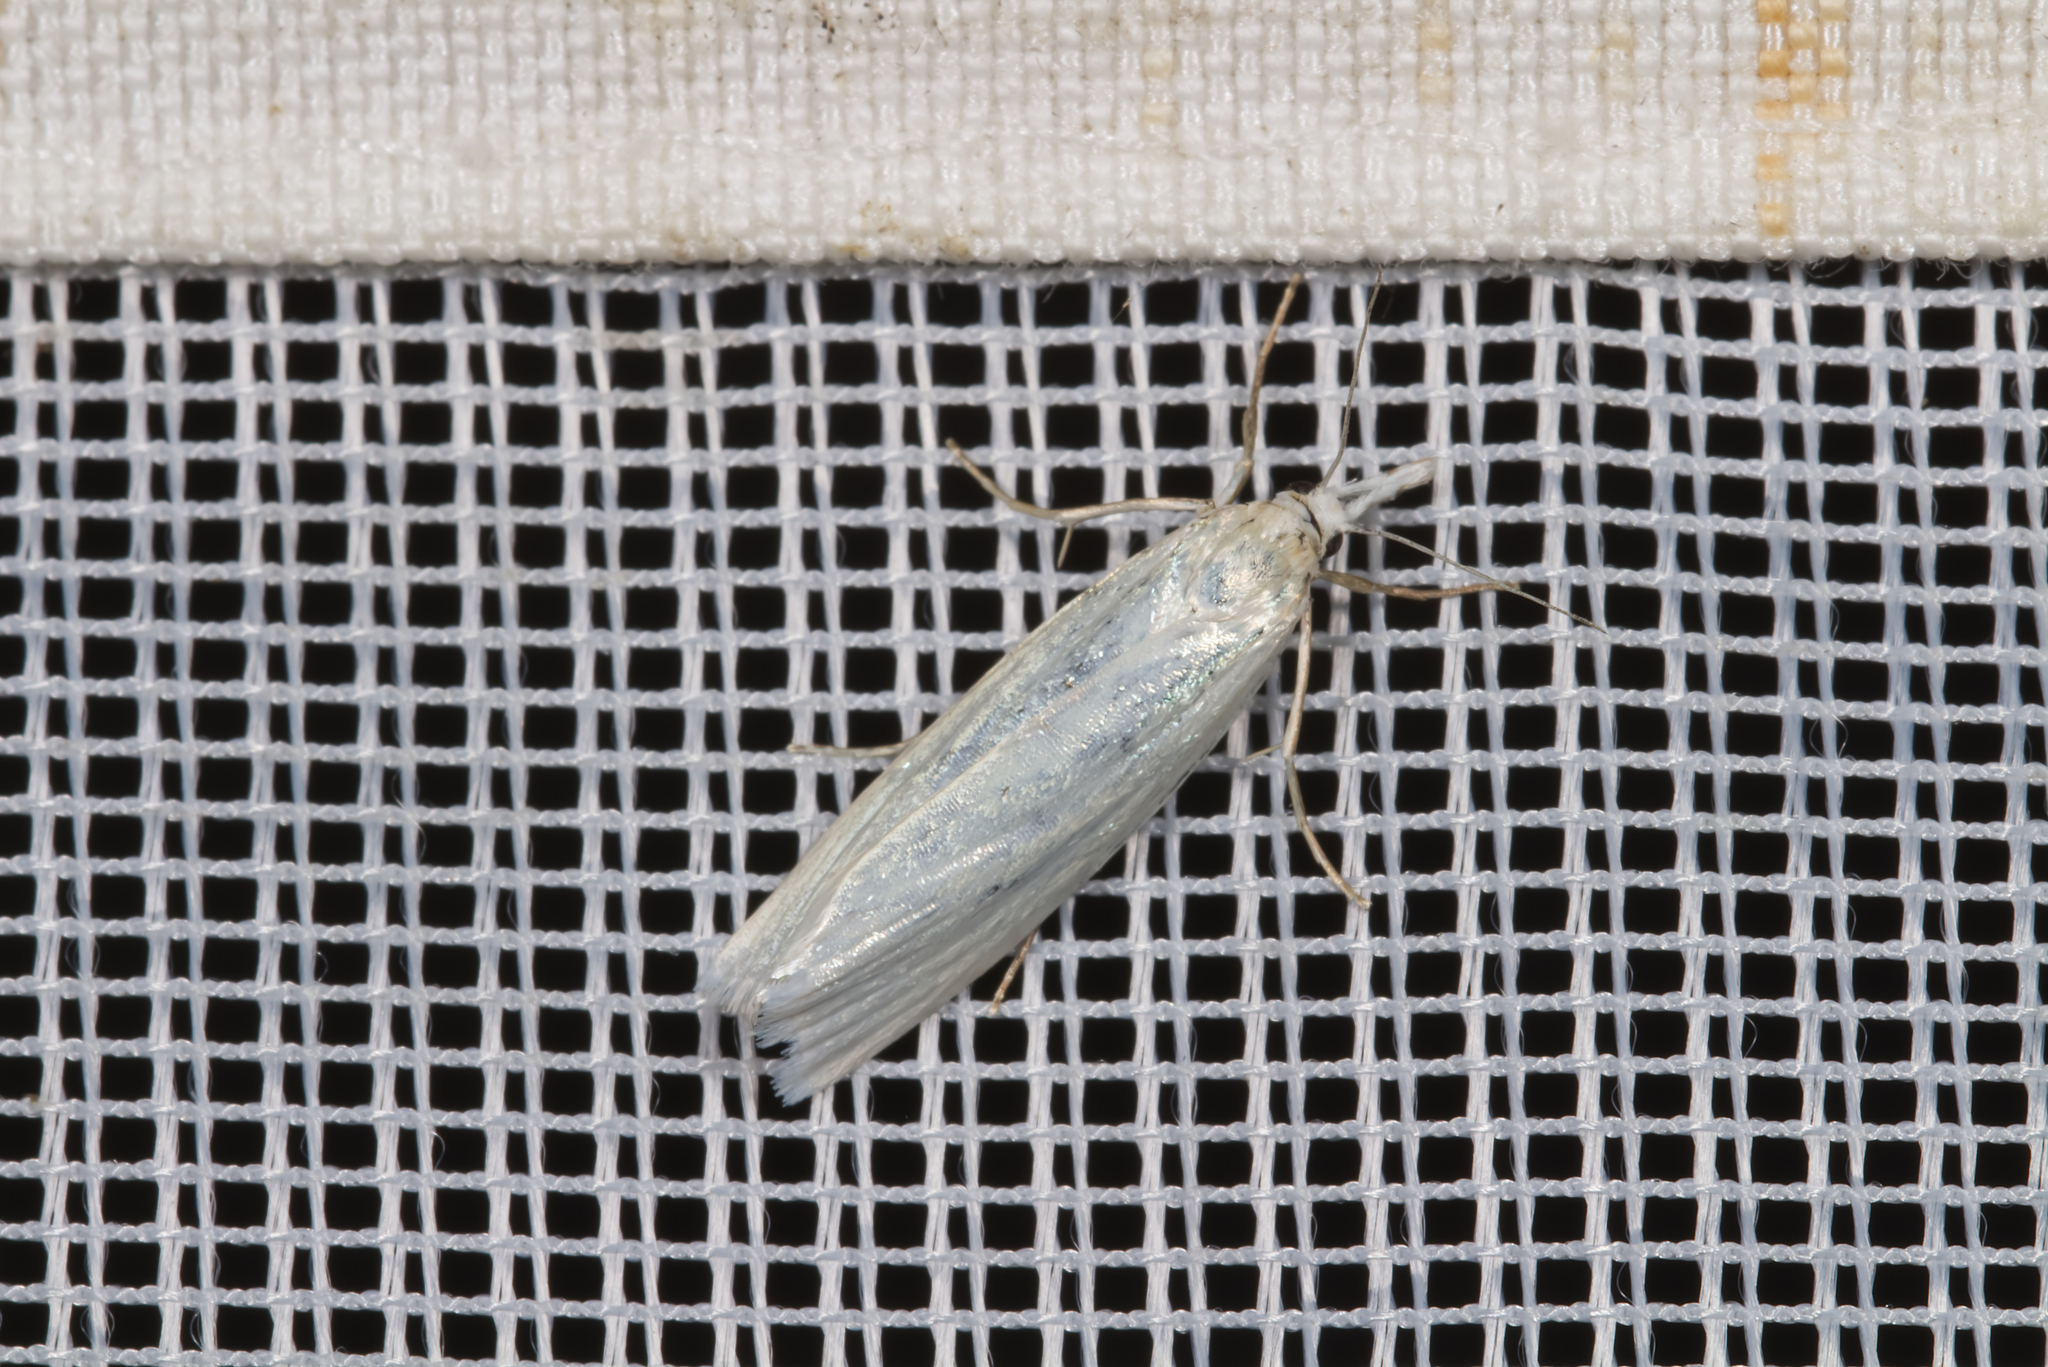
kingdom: Animalia
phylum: Arthropoda
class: Insecta
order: Lepidoptera
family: Crambidae
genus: Crambus
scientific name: Crambus perlellus
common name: Yellow satin veneer
